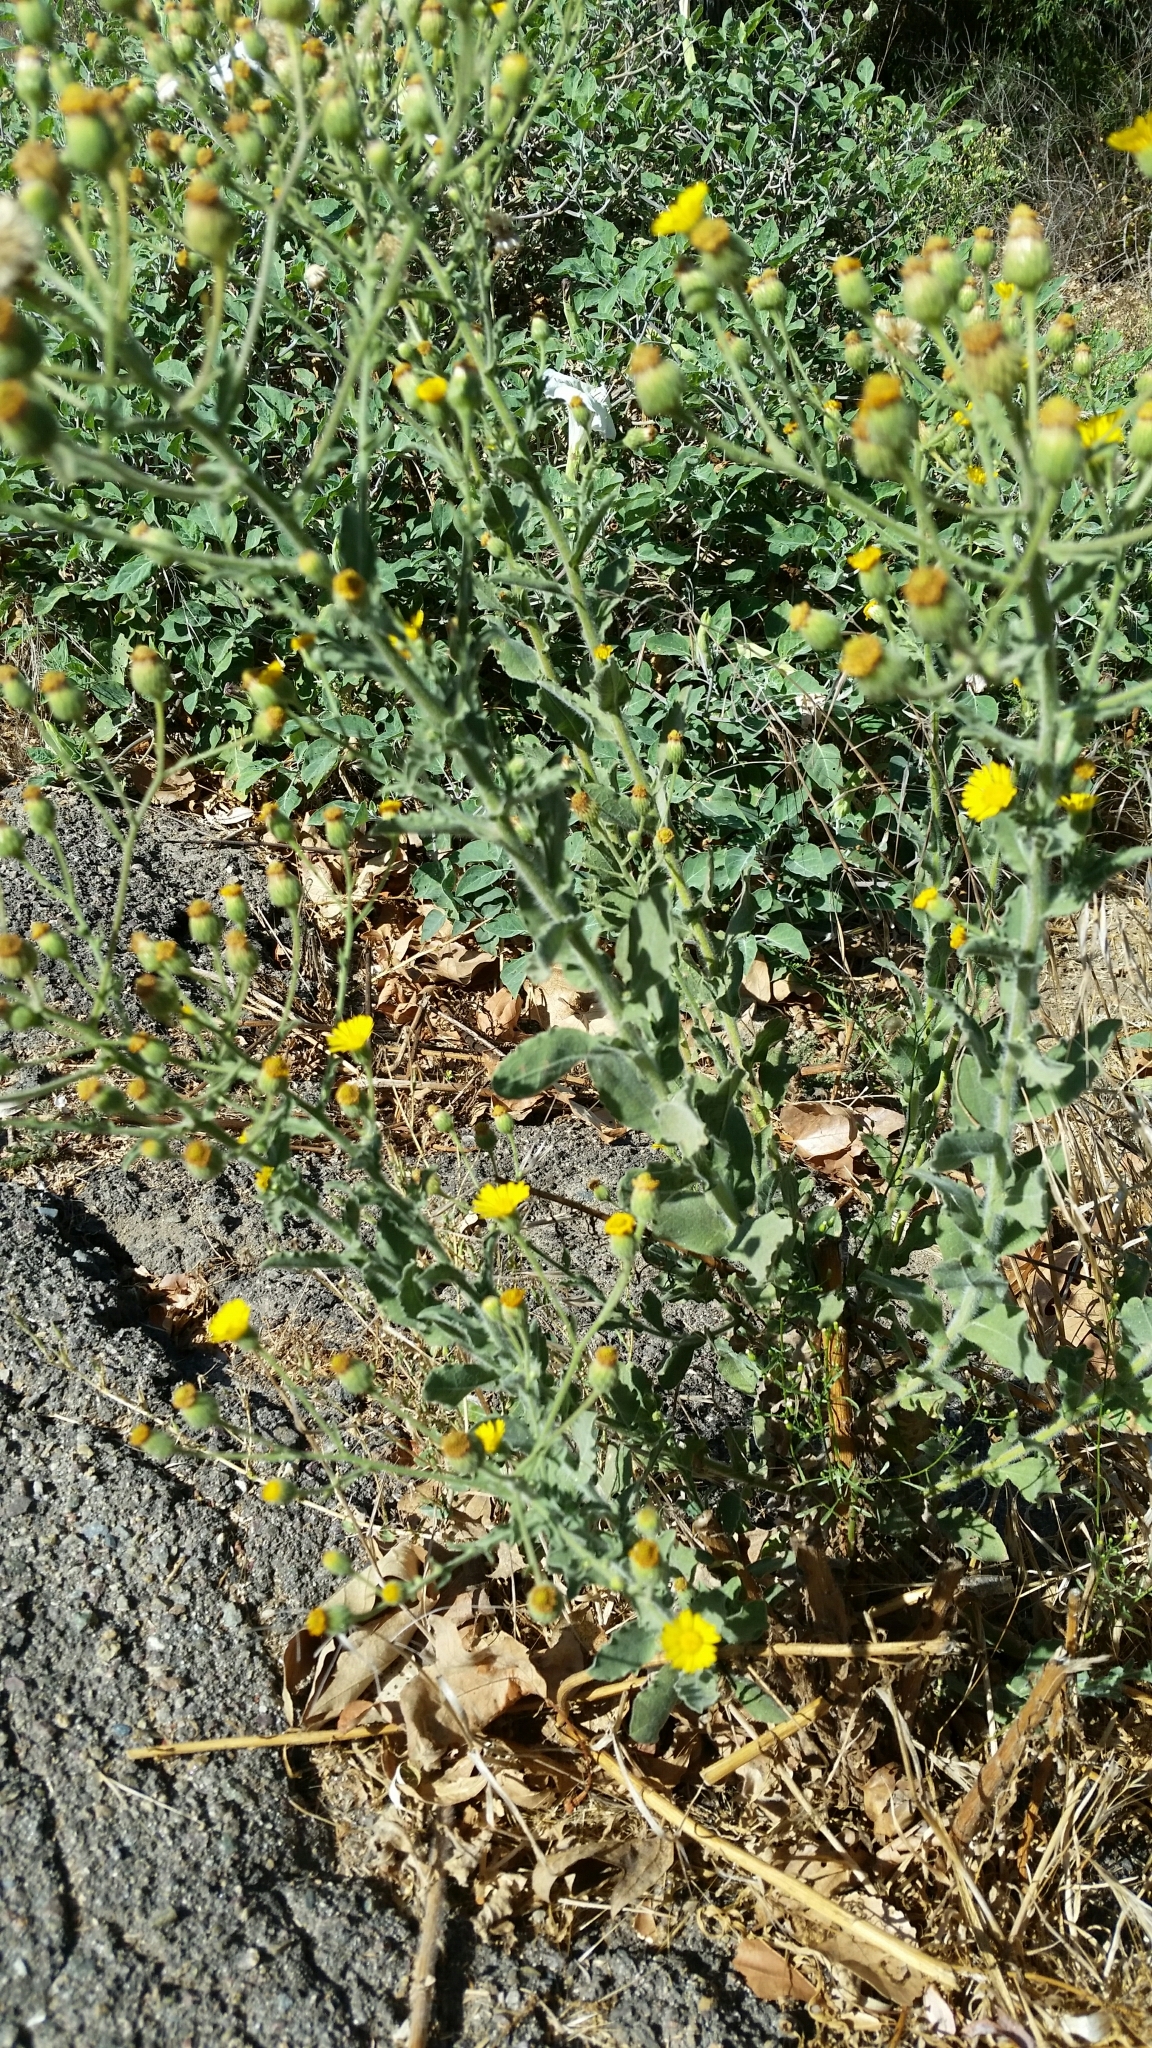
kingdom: Plantae
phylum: Tracheophyta
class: Magnoliopsida
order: Asterales
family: Asteraceae
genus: Heterotheca
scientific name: Heterotheca grandiflora
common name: Telegraphweed
